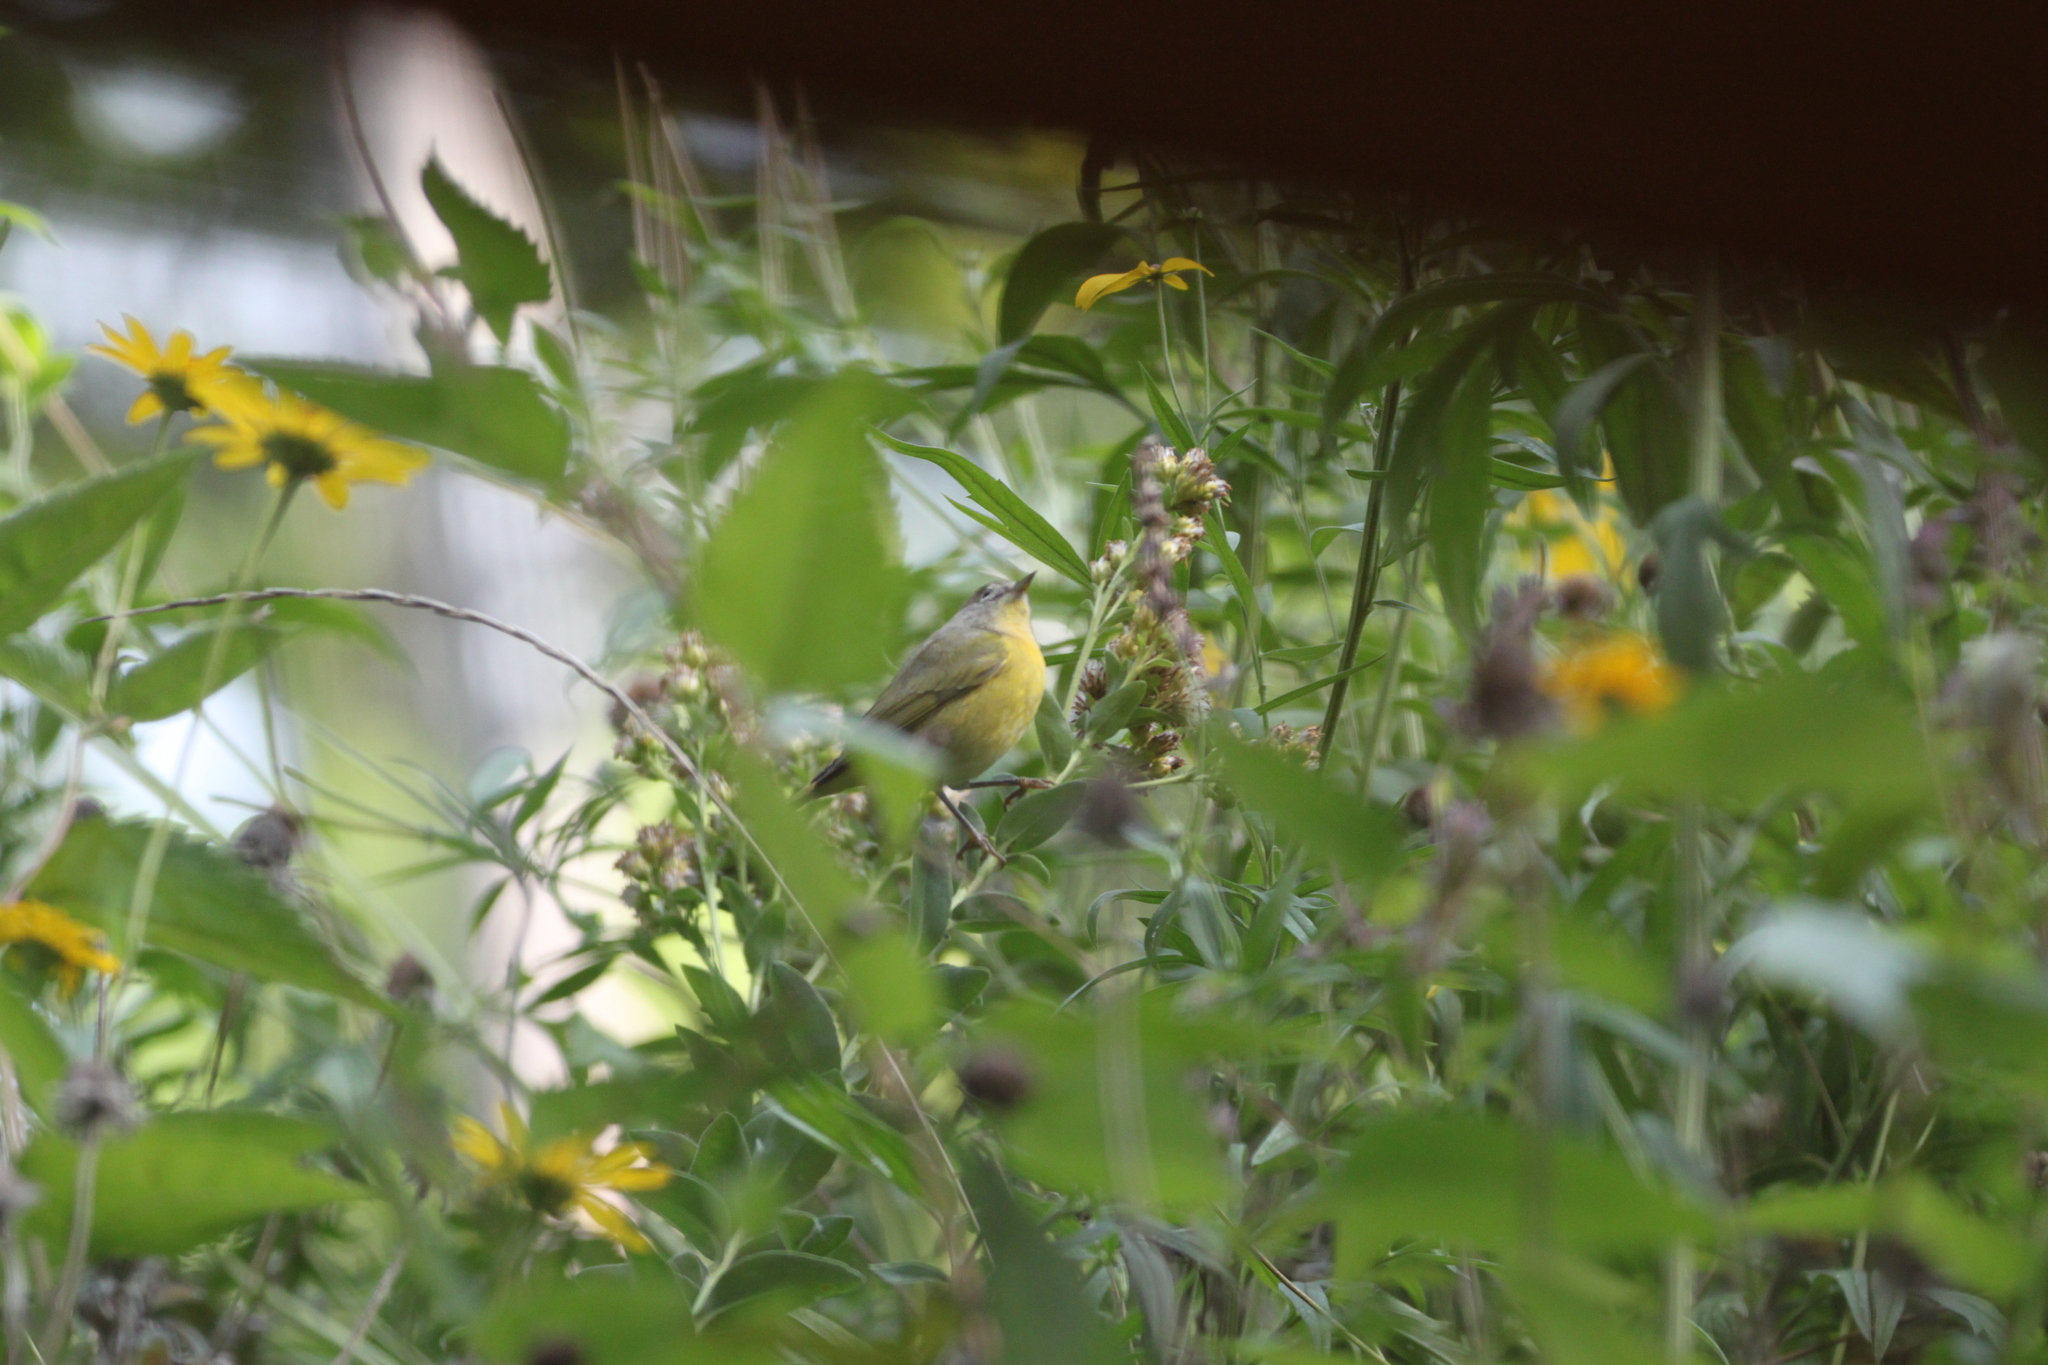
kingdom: Animalia
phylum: Chordata
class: Aves
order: Passeriformes
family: Parulidae
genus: Leiothlypis
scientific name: Leiothlypis ruficapilla
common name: Nashville warbler
